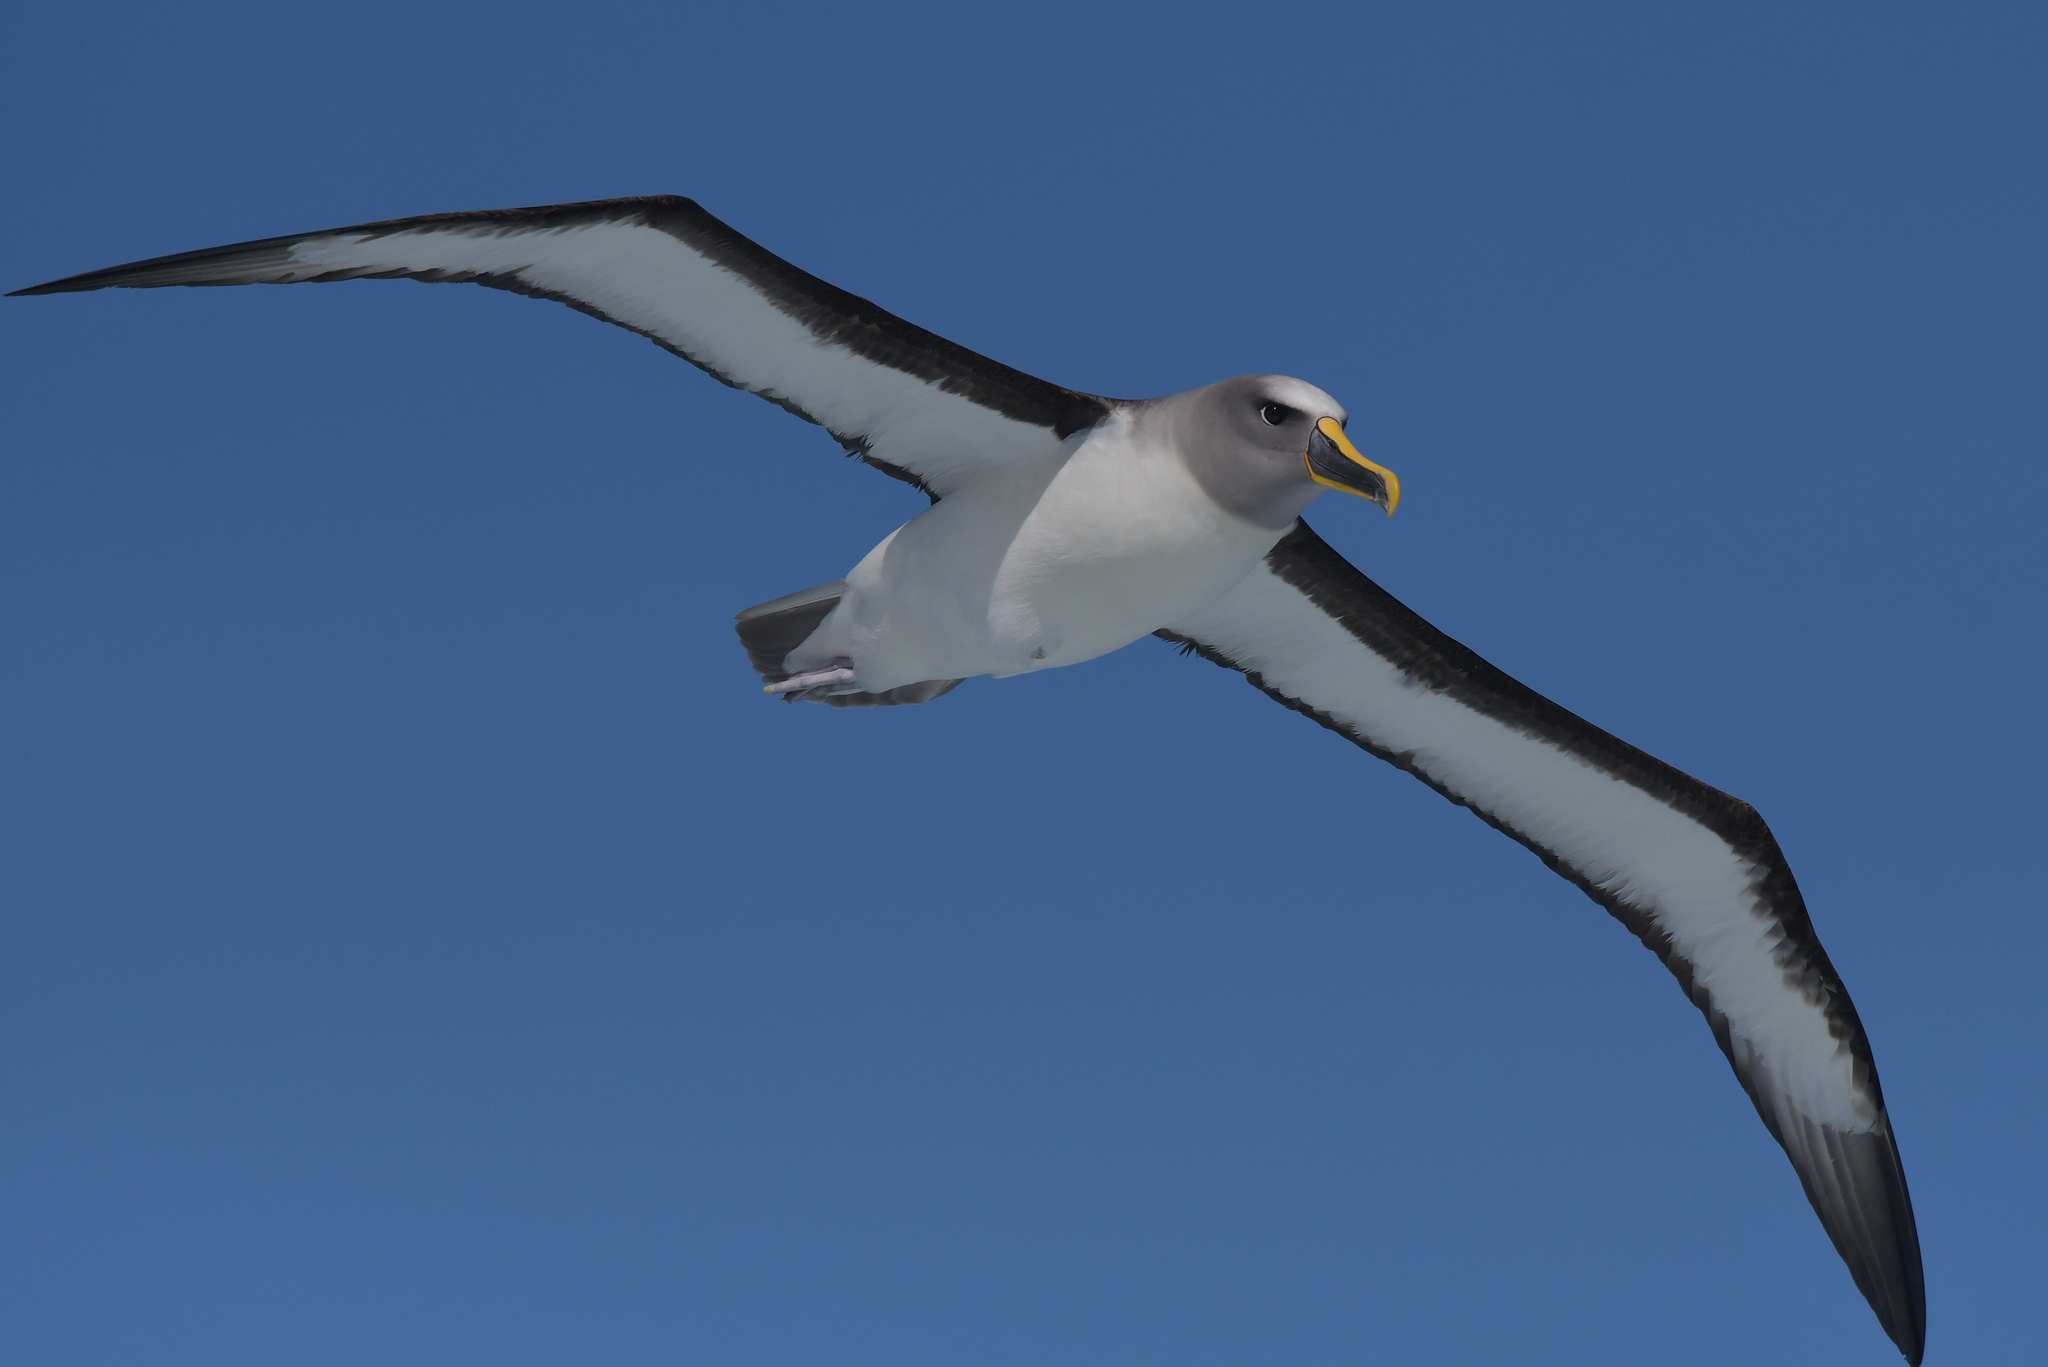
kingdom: Animalia
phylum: Chordata
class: Aves
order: Procellariiformes
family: Diomedeidae
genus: Thalassarche
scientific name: Thalassarche bulleri
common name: Buller's albatross
